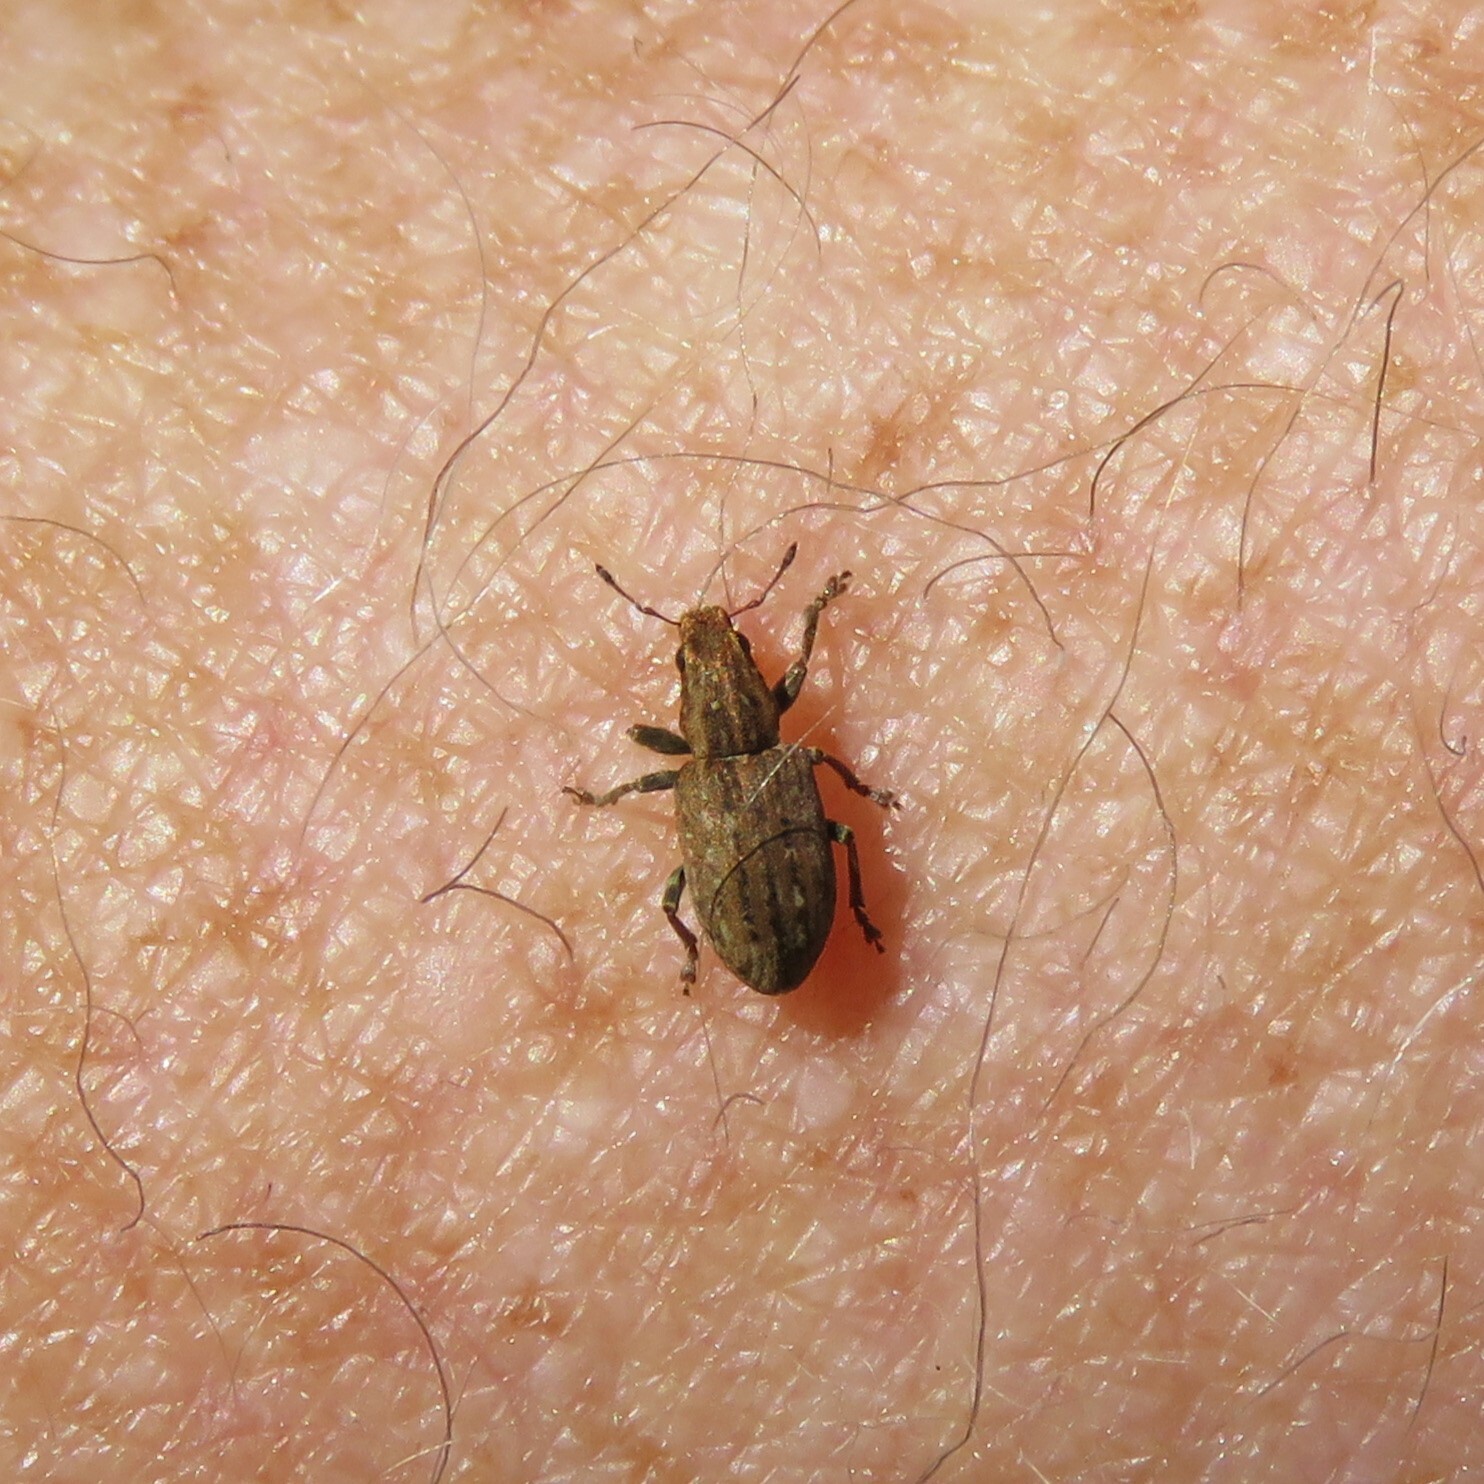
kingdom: Animalia
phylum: Arthropoda
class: Insecta
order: Coleoptera
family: Curculionidae
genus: Sitona
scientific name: Sitona obsoletus
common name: Weevil
